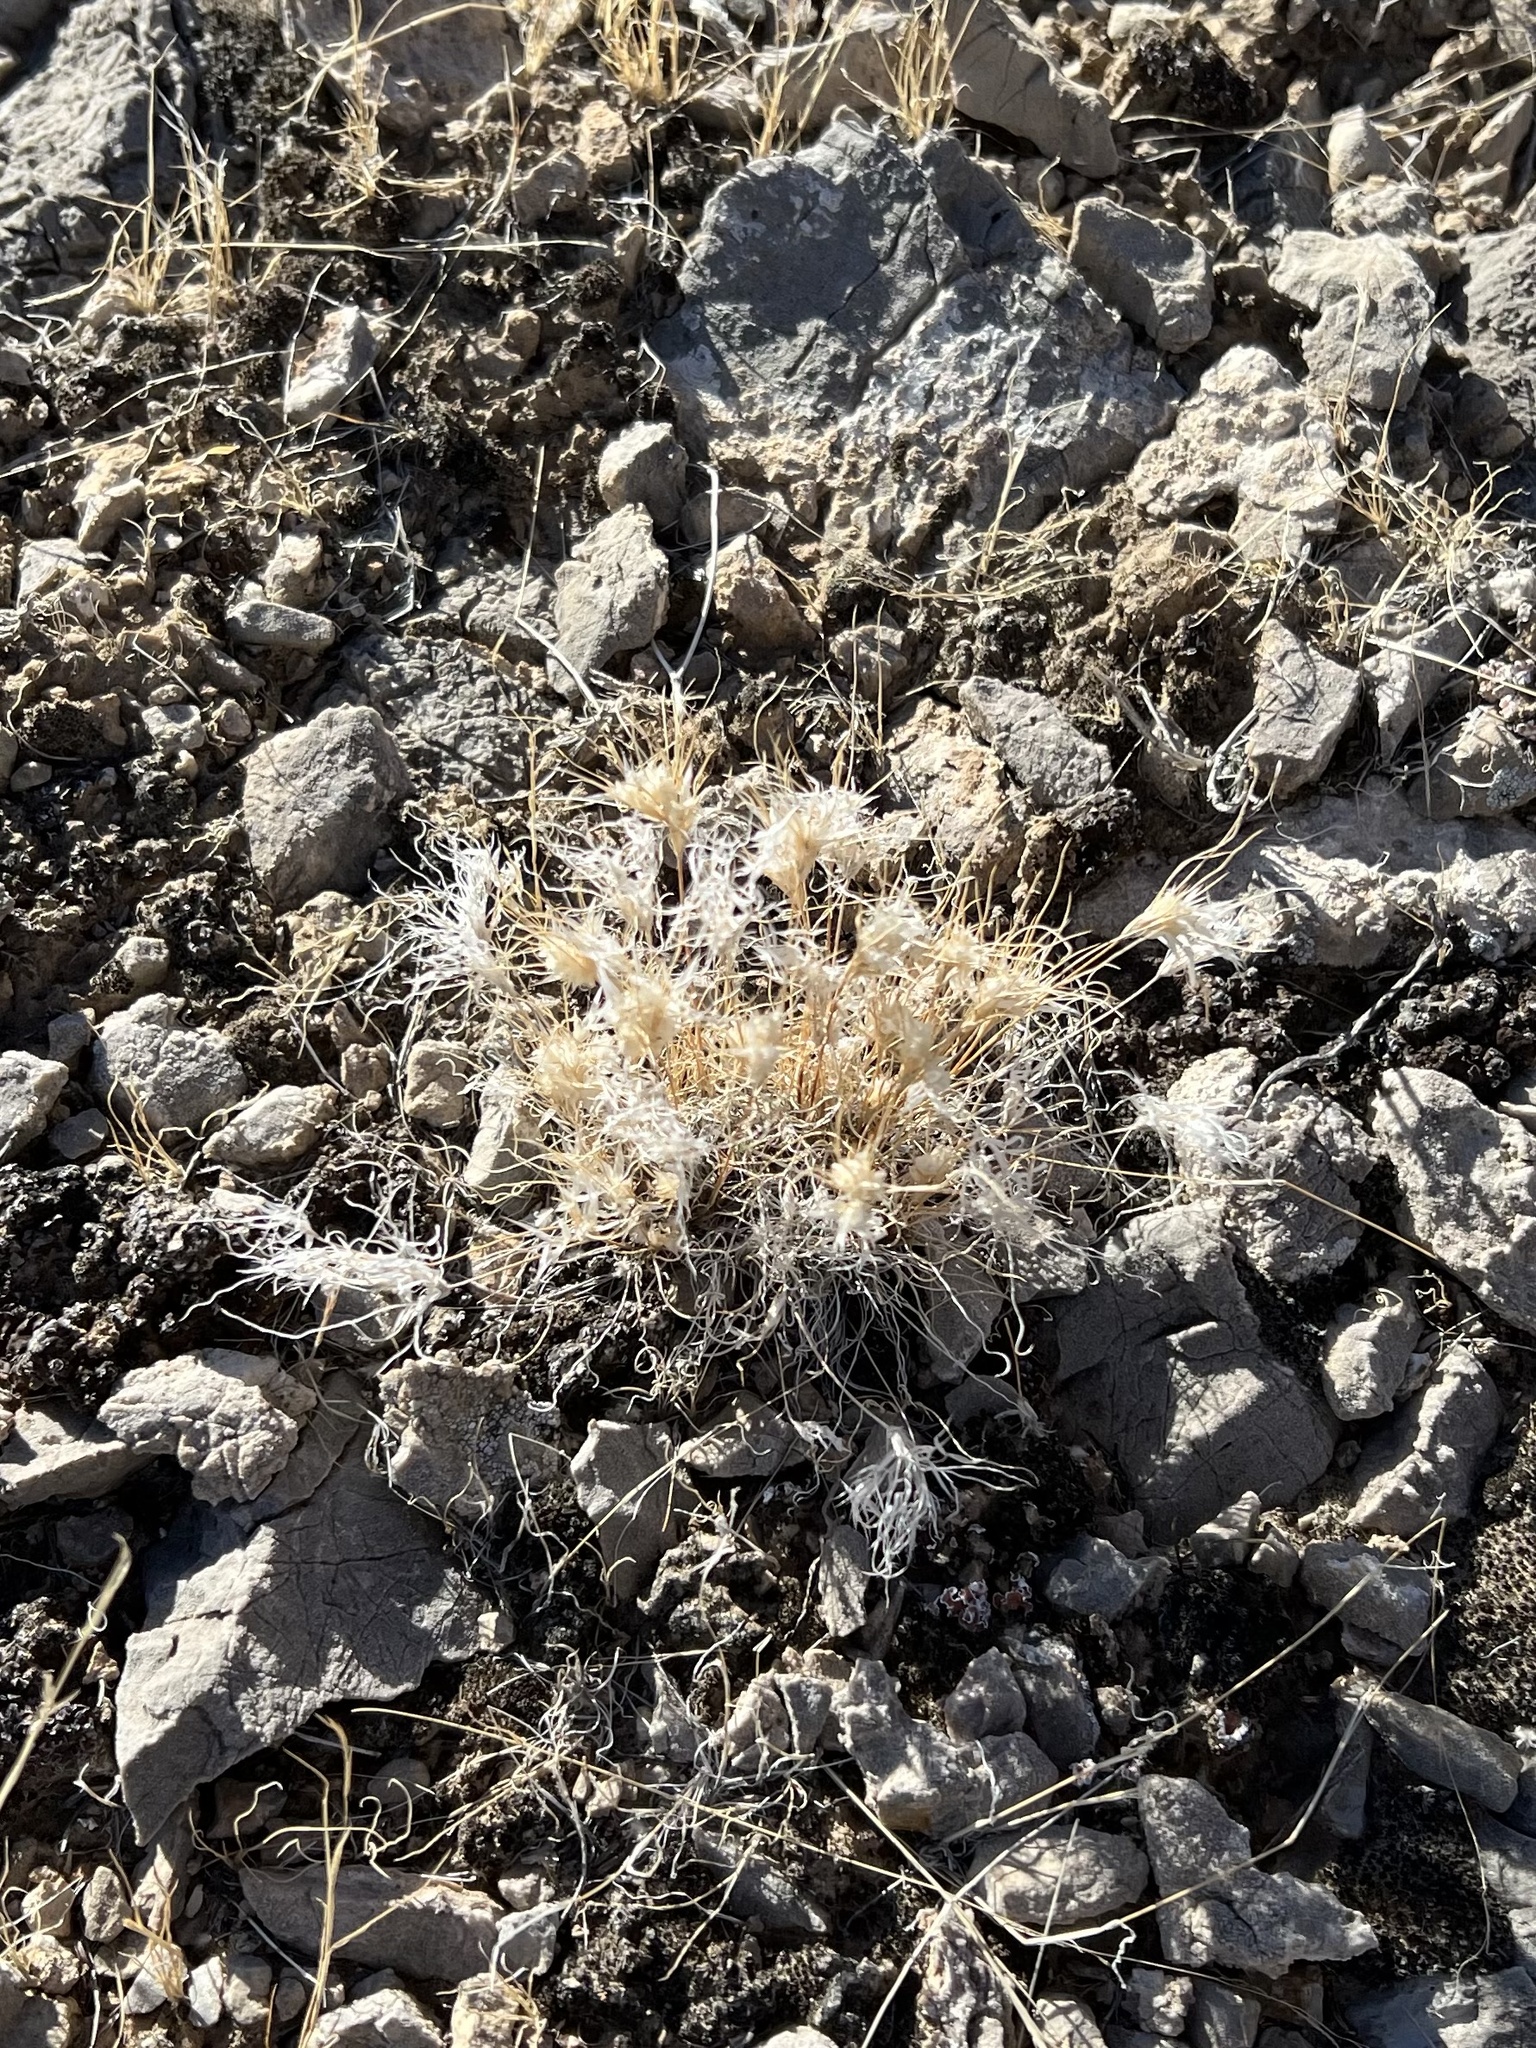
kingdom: Plantae
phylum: Tracheophyta
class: Liliopsida
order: Poales
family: Poaceae
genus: Dasyochloa
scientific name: Dasyochloa pulchella
